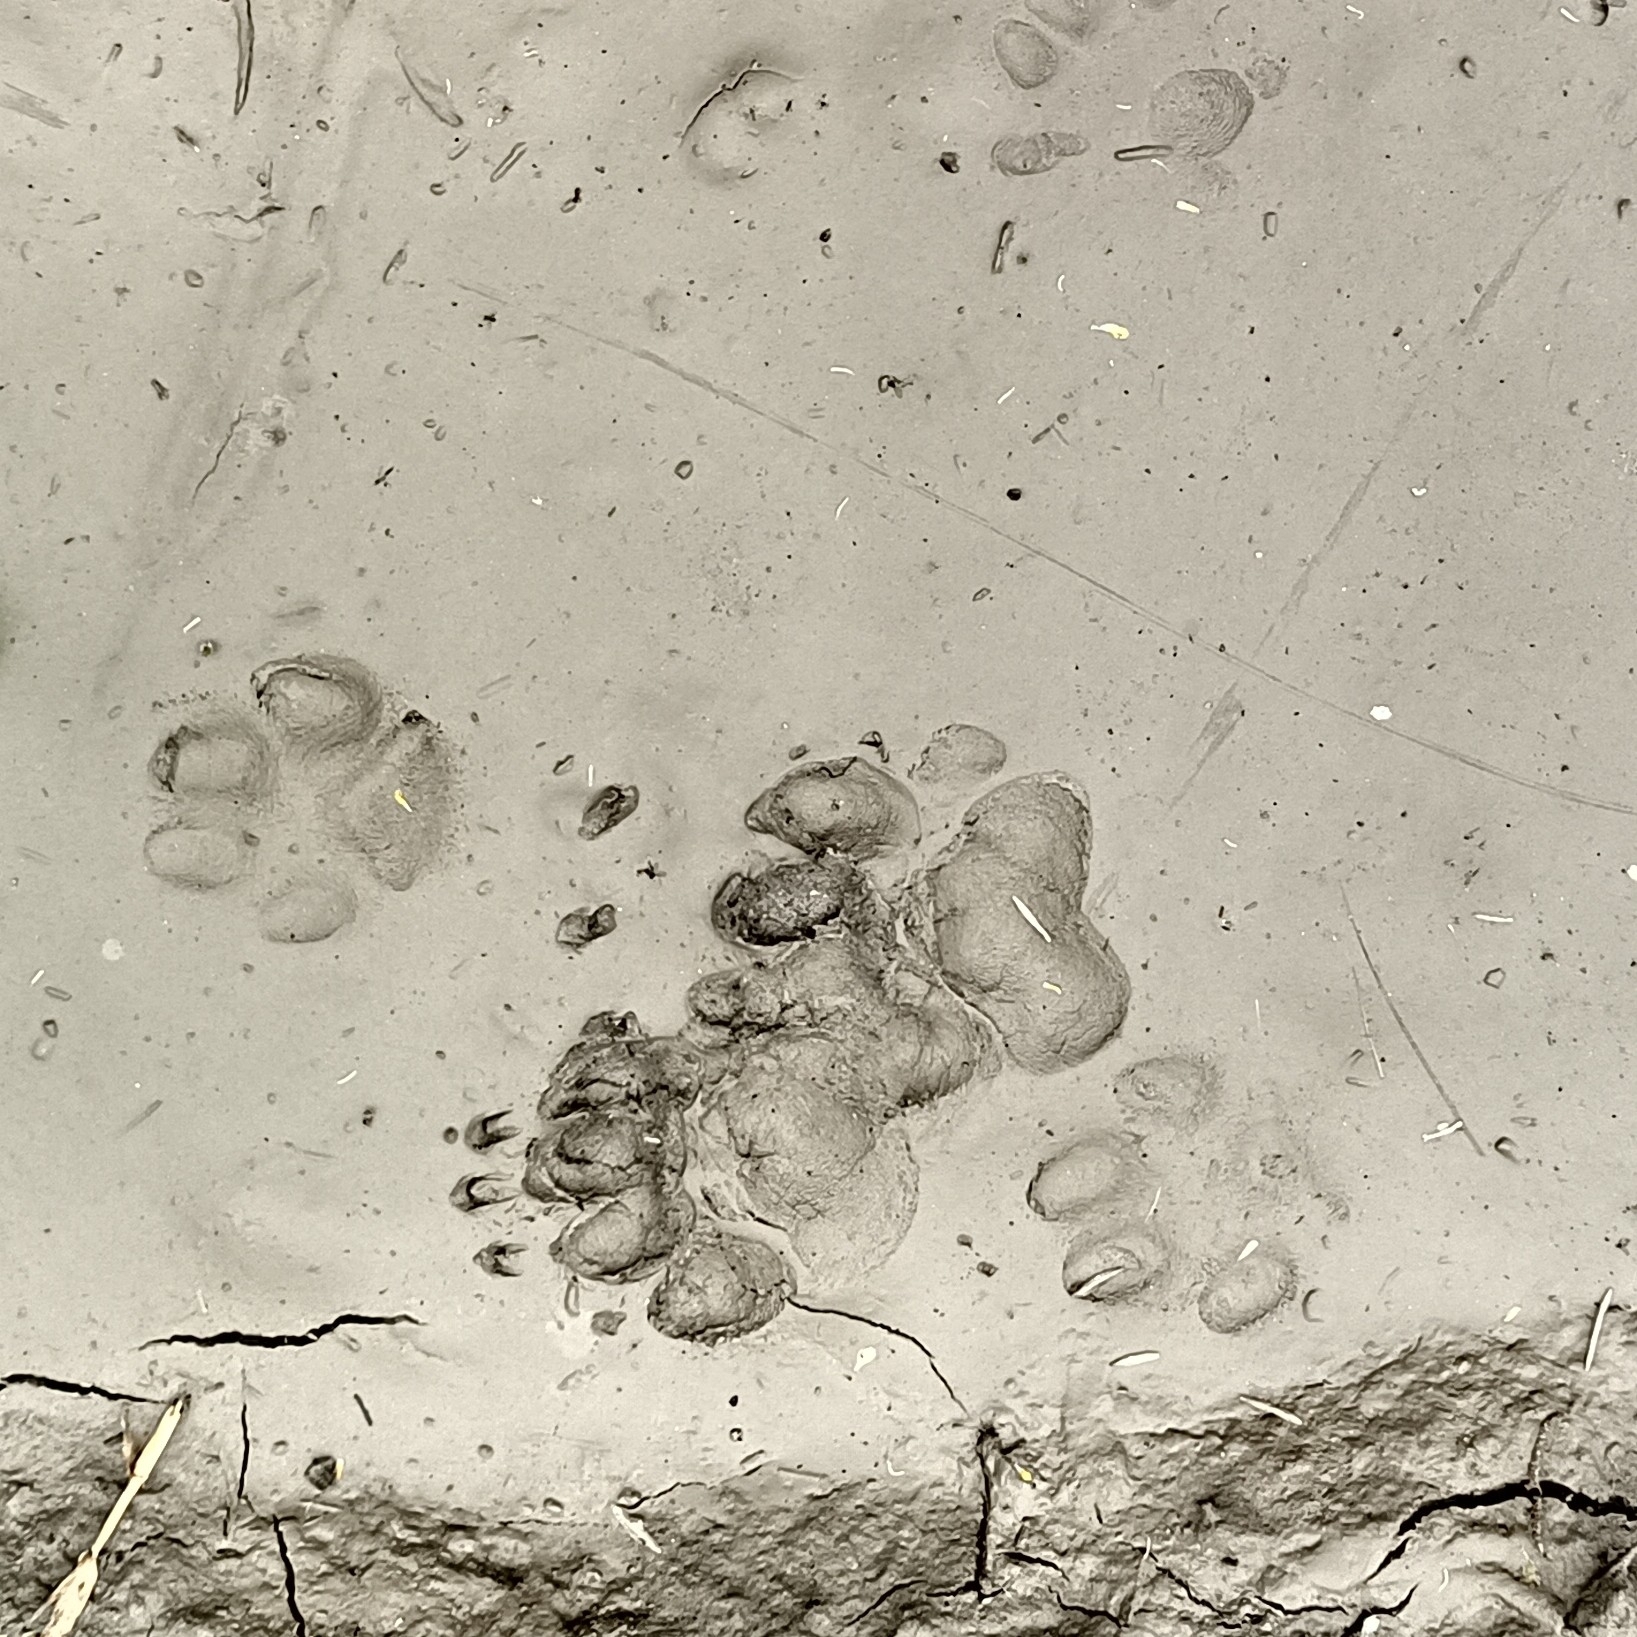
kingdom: Animalia
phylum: Chordata
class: Mammalia
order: Carnivora
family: Mustelidae
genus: Meles
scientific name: Meles meles
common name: Eurasian badger
